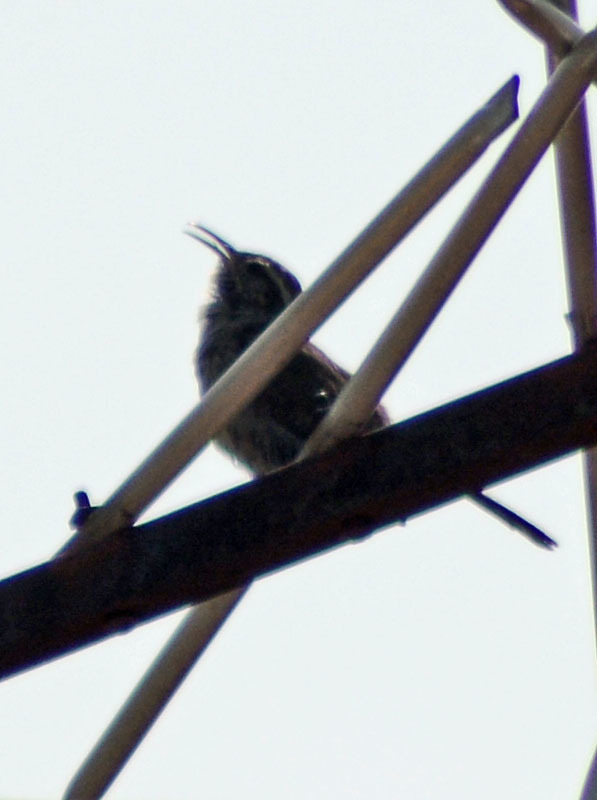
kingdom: Animalia
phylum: Chordata
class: Aves
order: Passeriformes
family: Troglodytidae
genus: Thryomanes
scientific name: Thryomanes bewickii
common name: Bewick's wren
